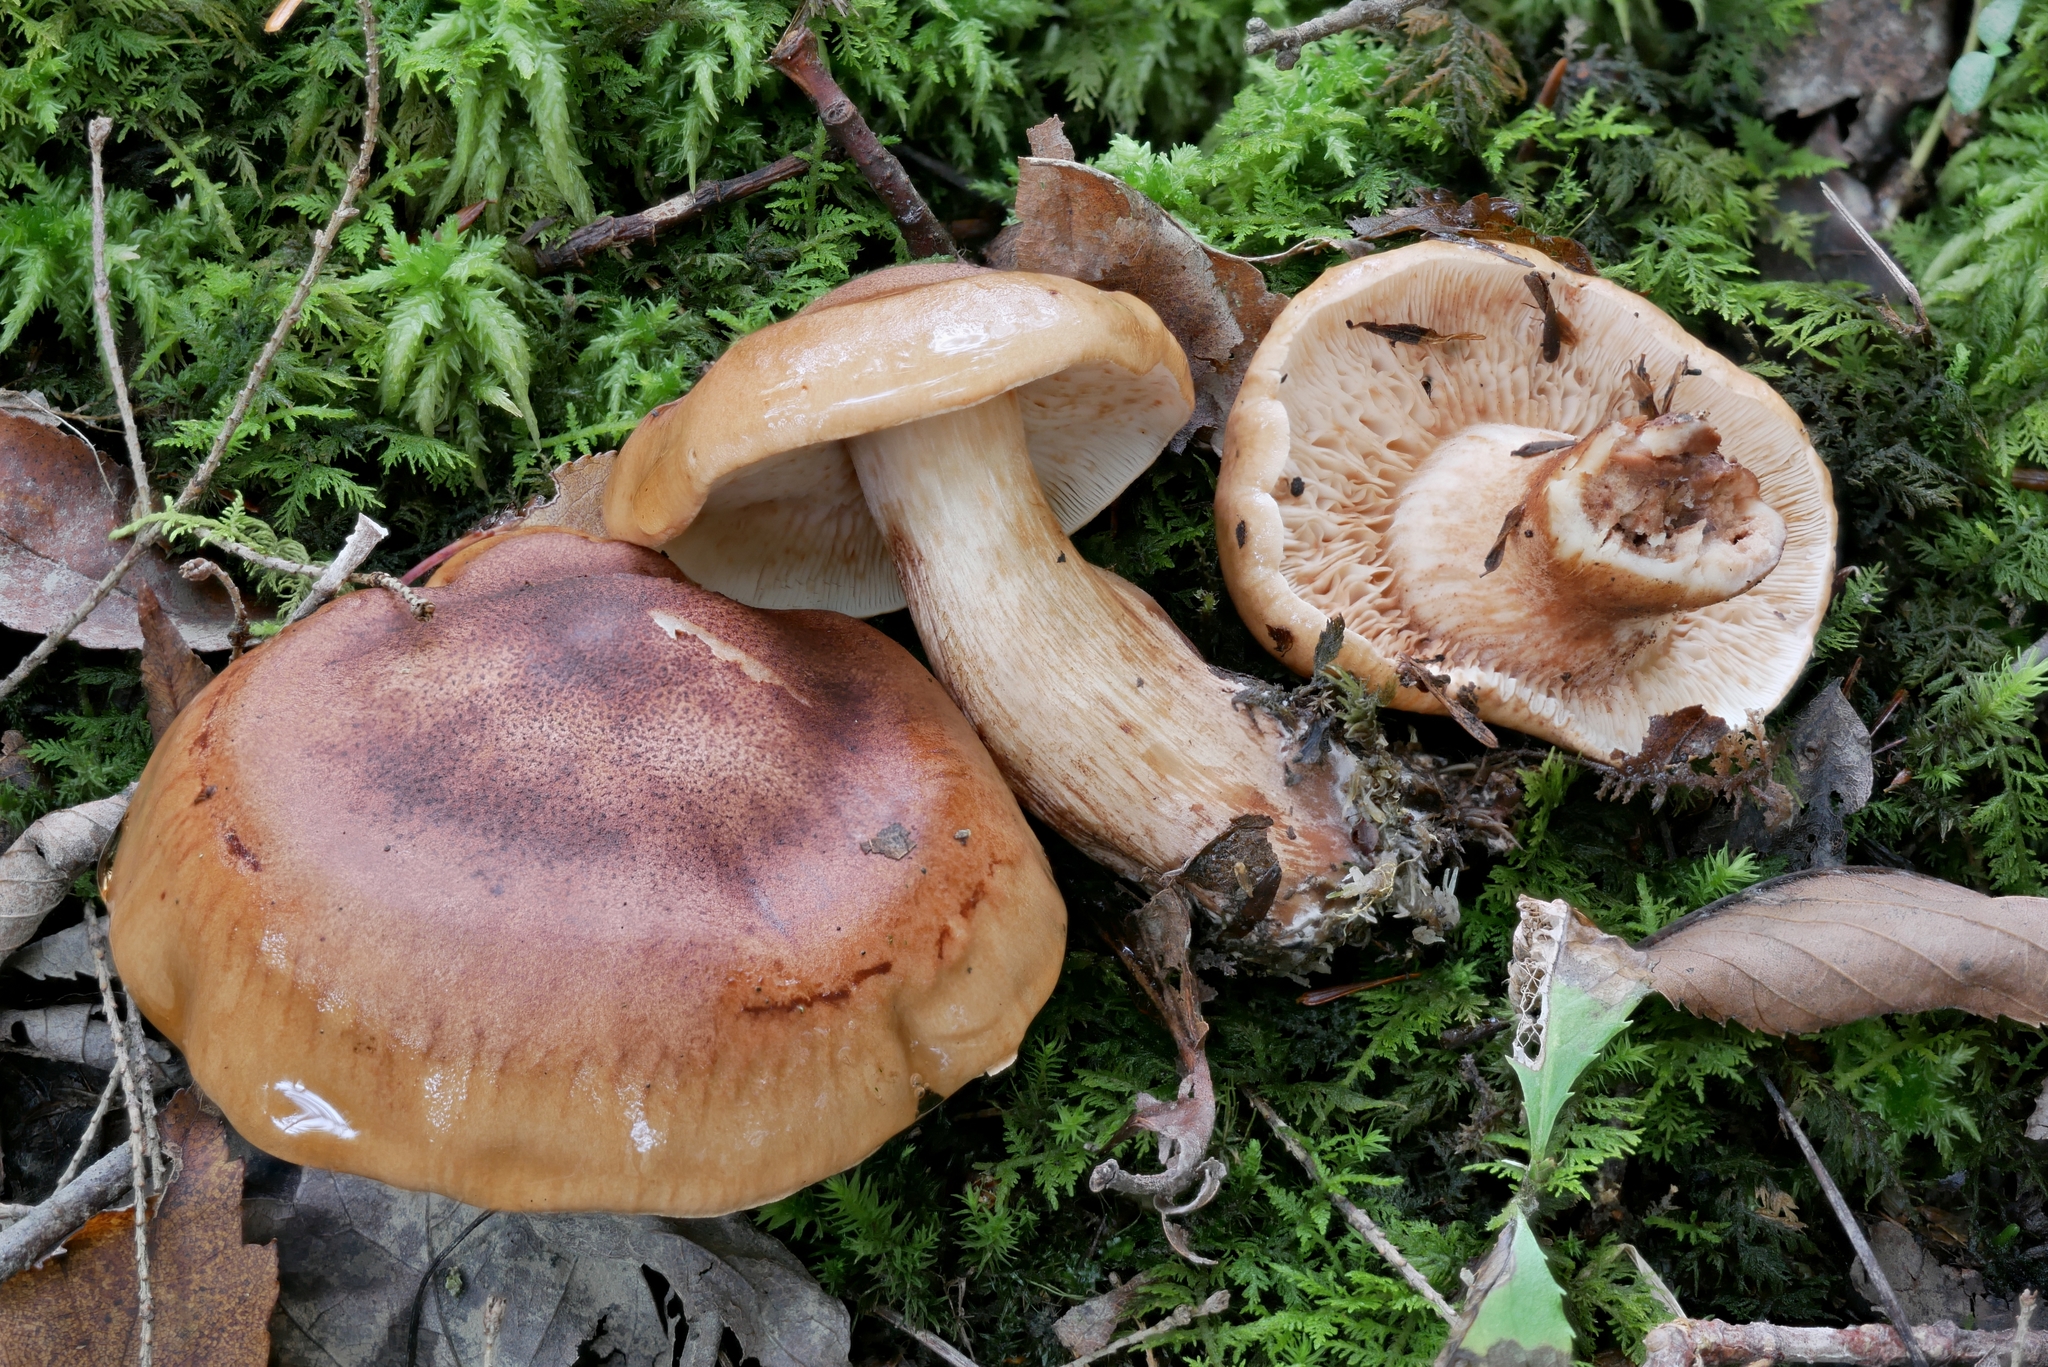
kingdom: Fungi
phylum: Basidiomycota
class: Agaricomycetes
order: Agaricales
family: Tricholomataceae
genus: Tricholoma
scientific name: Tricholoma fulvum
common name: Birch knight
